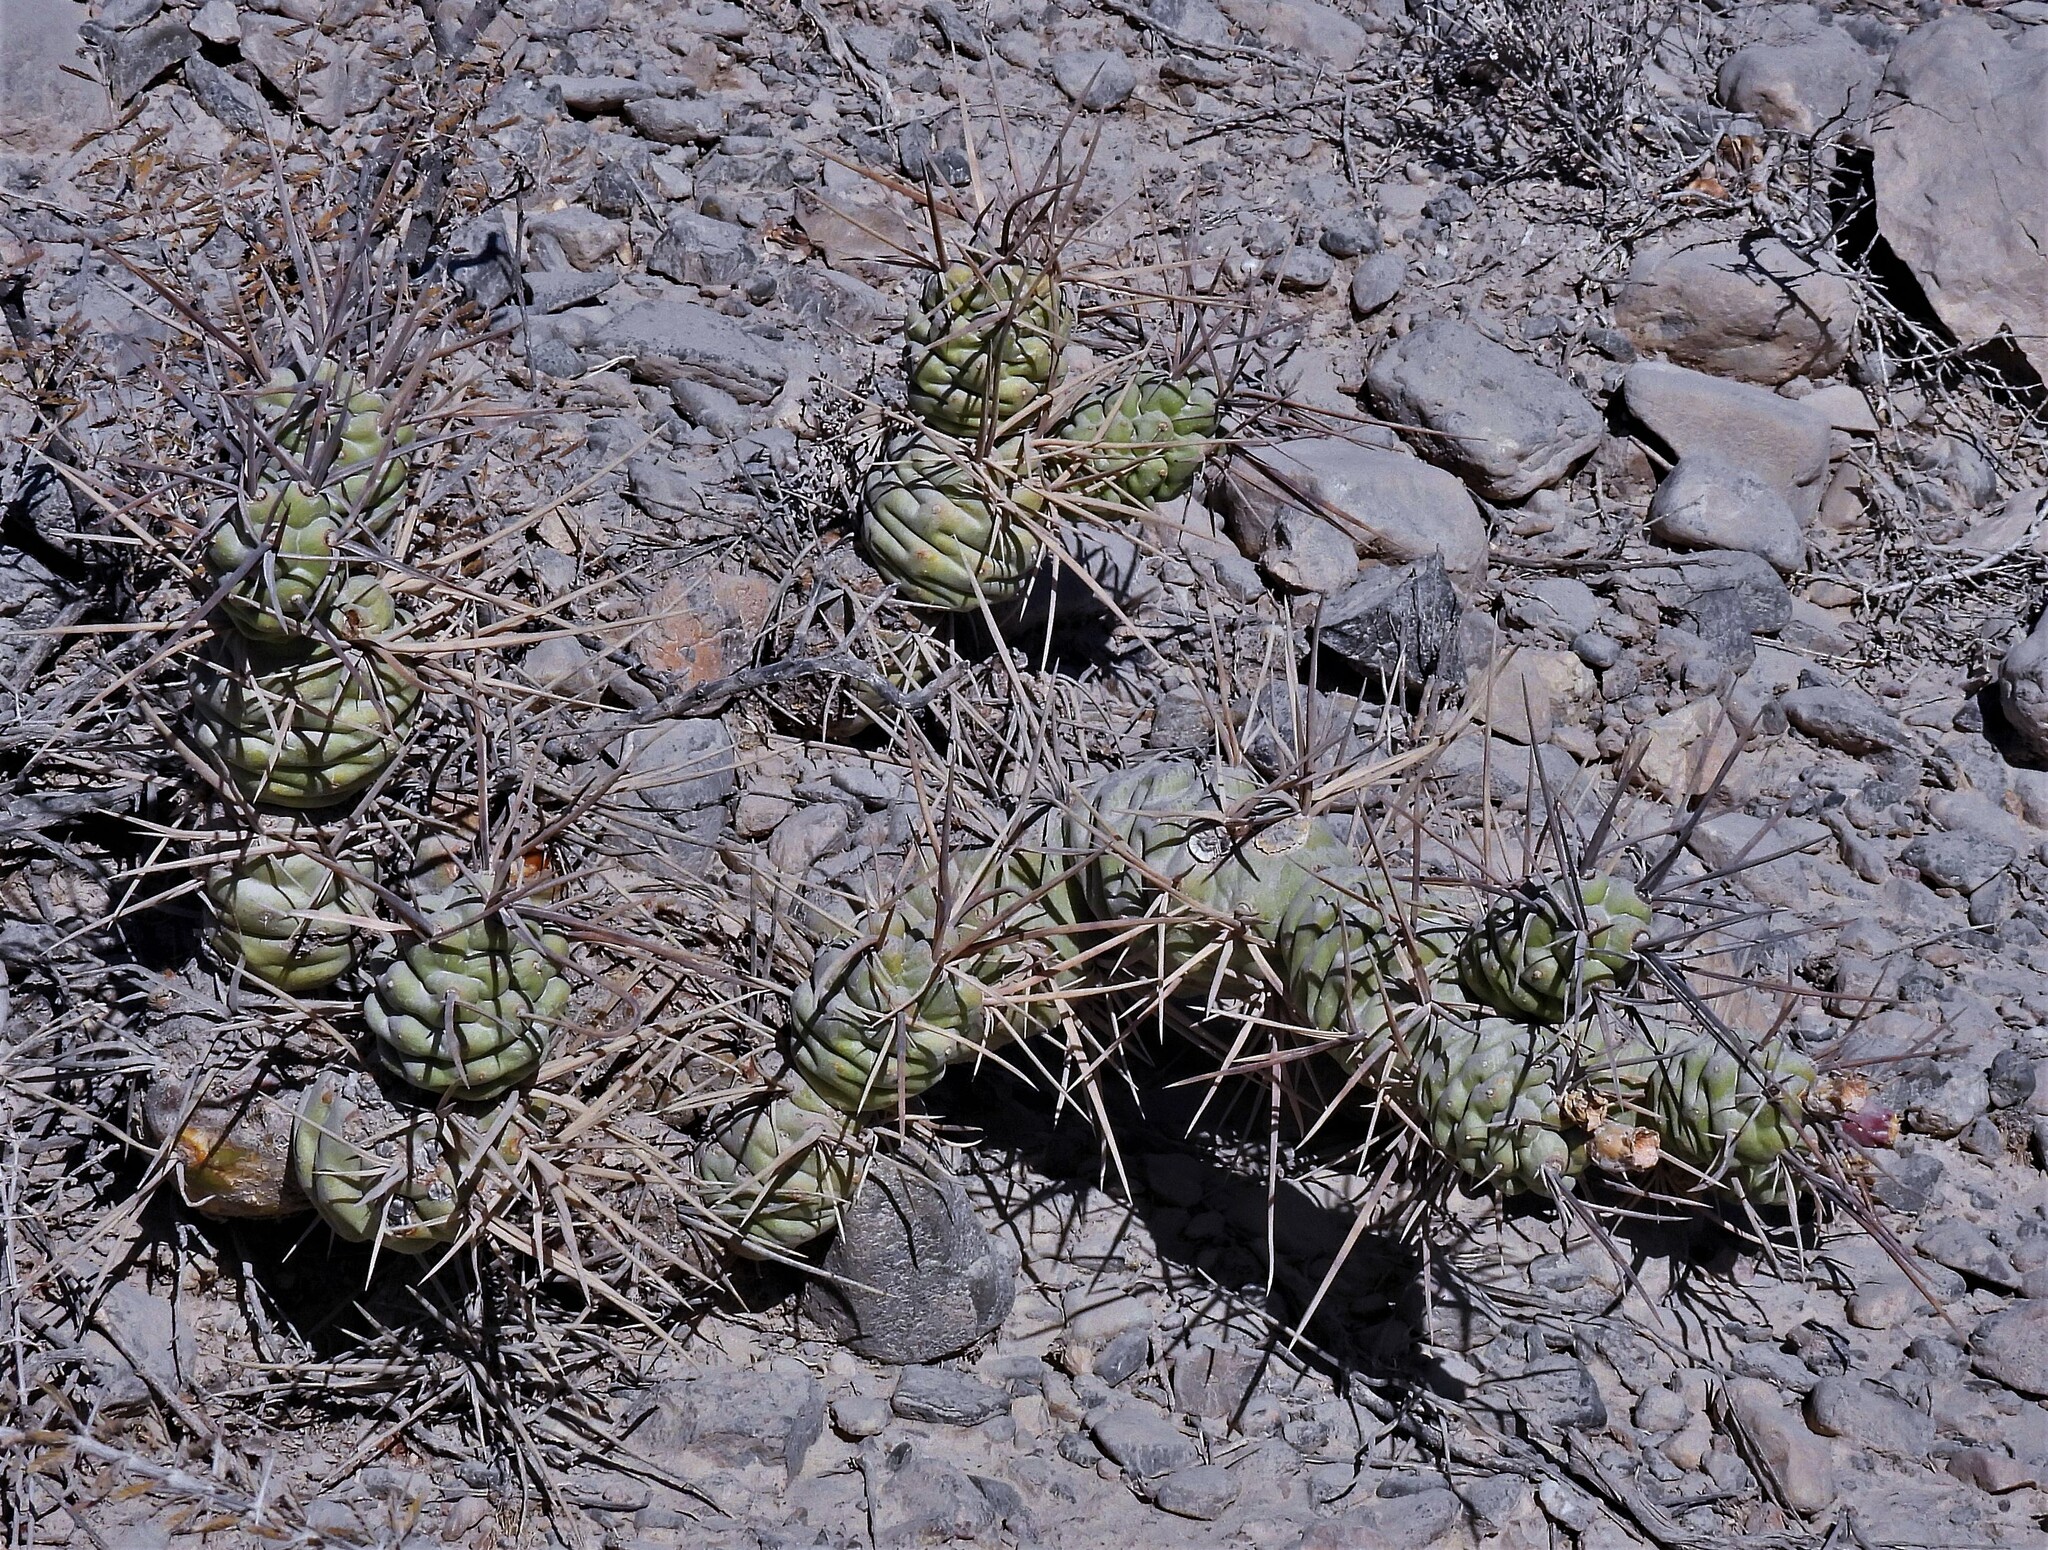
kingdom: Plantae
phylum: Tracheophyta
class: Magnoliopsida
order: Caryophyllales
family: Cactaceae
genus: Tephrocactus
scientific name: Tephrocactus aoracanthus
